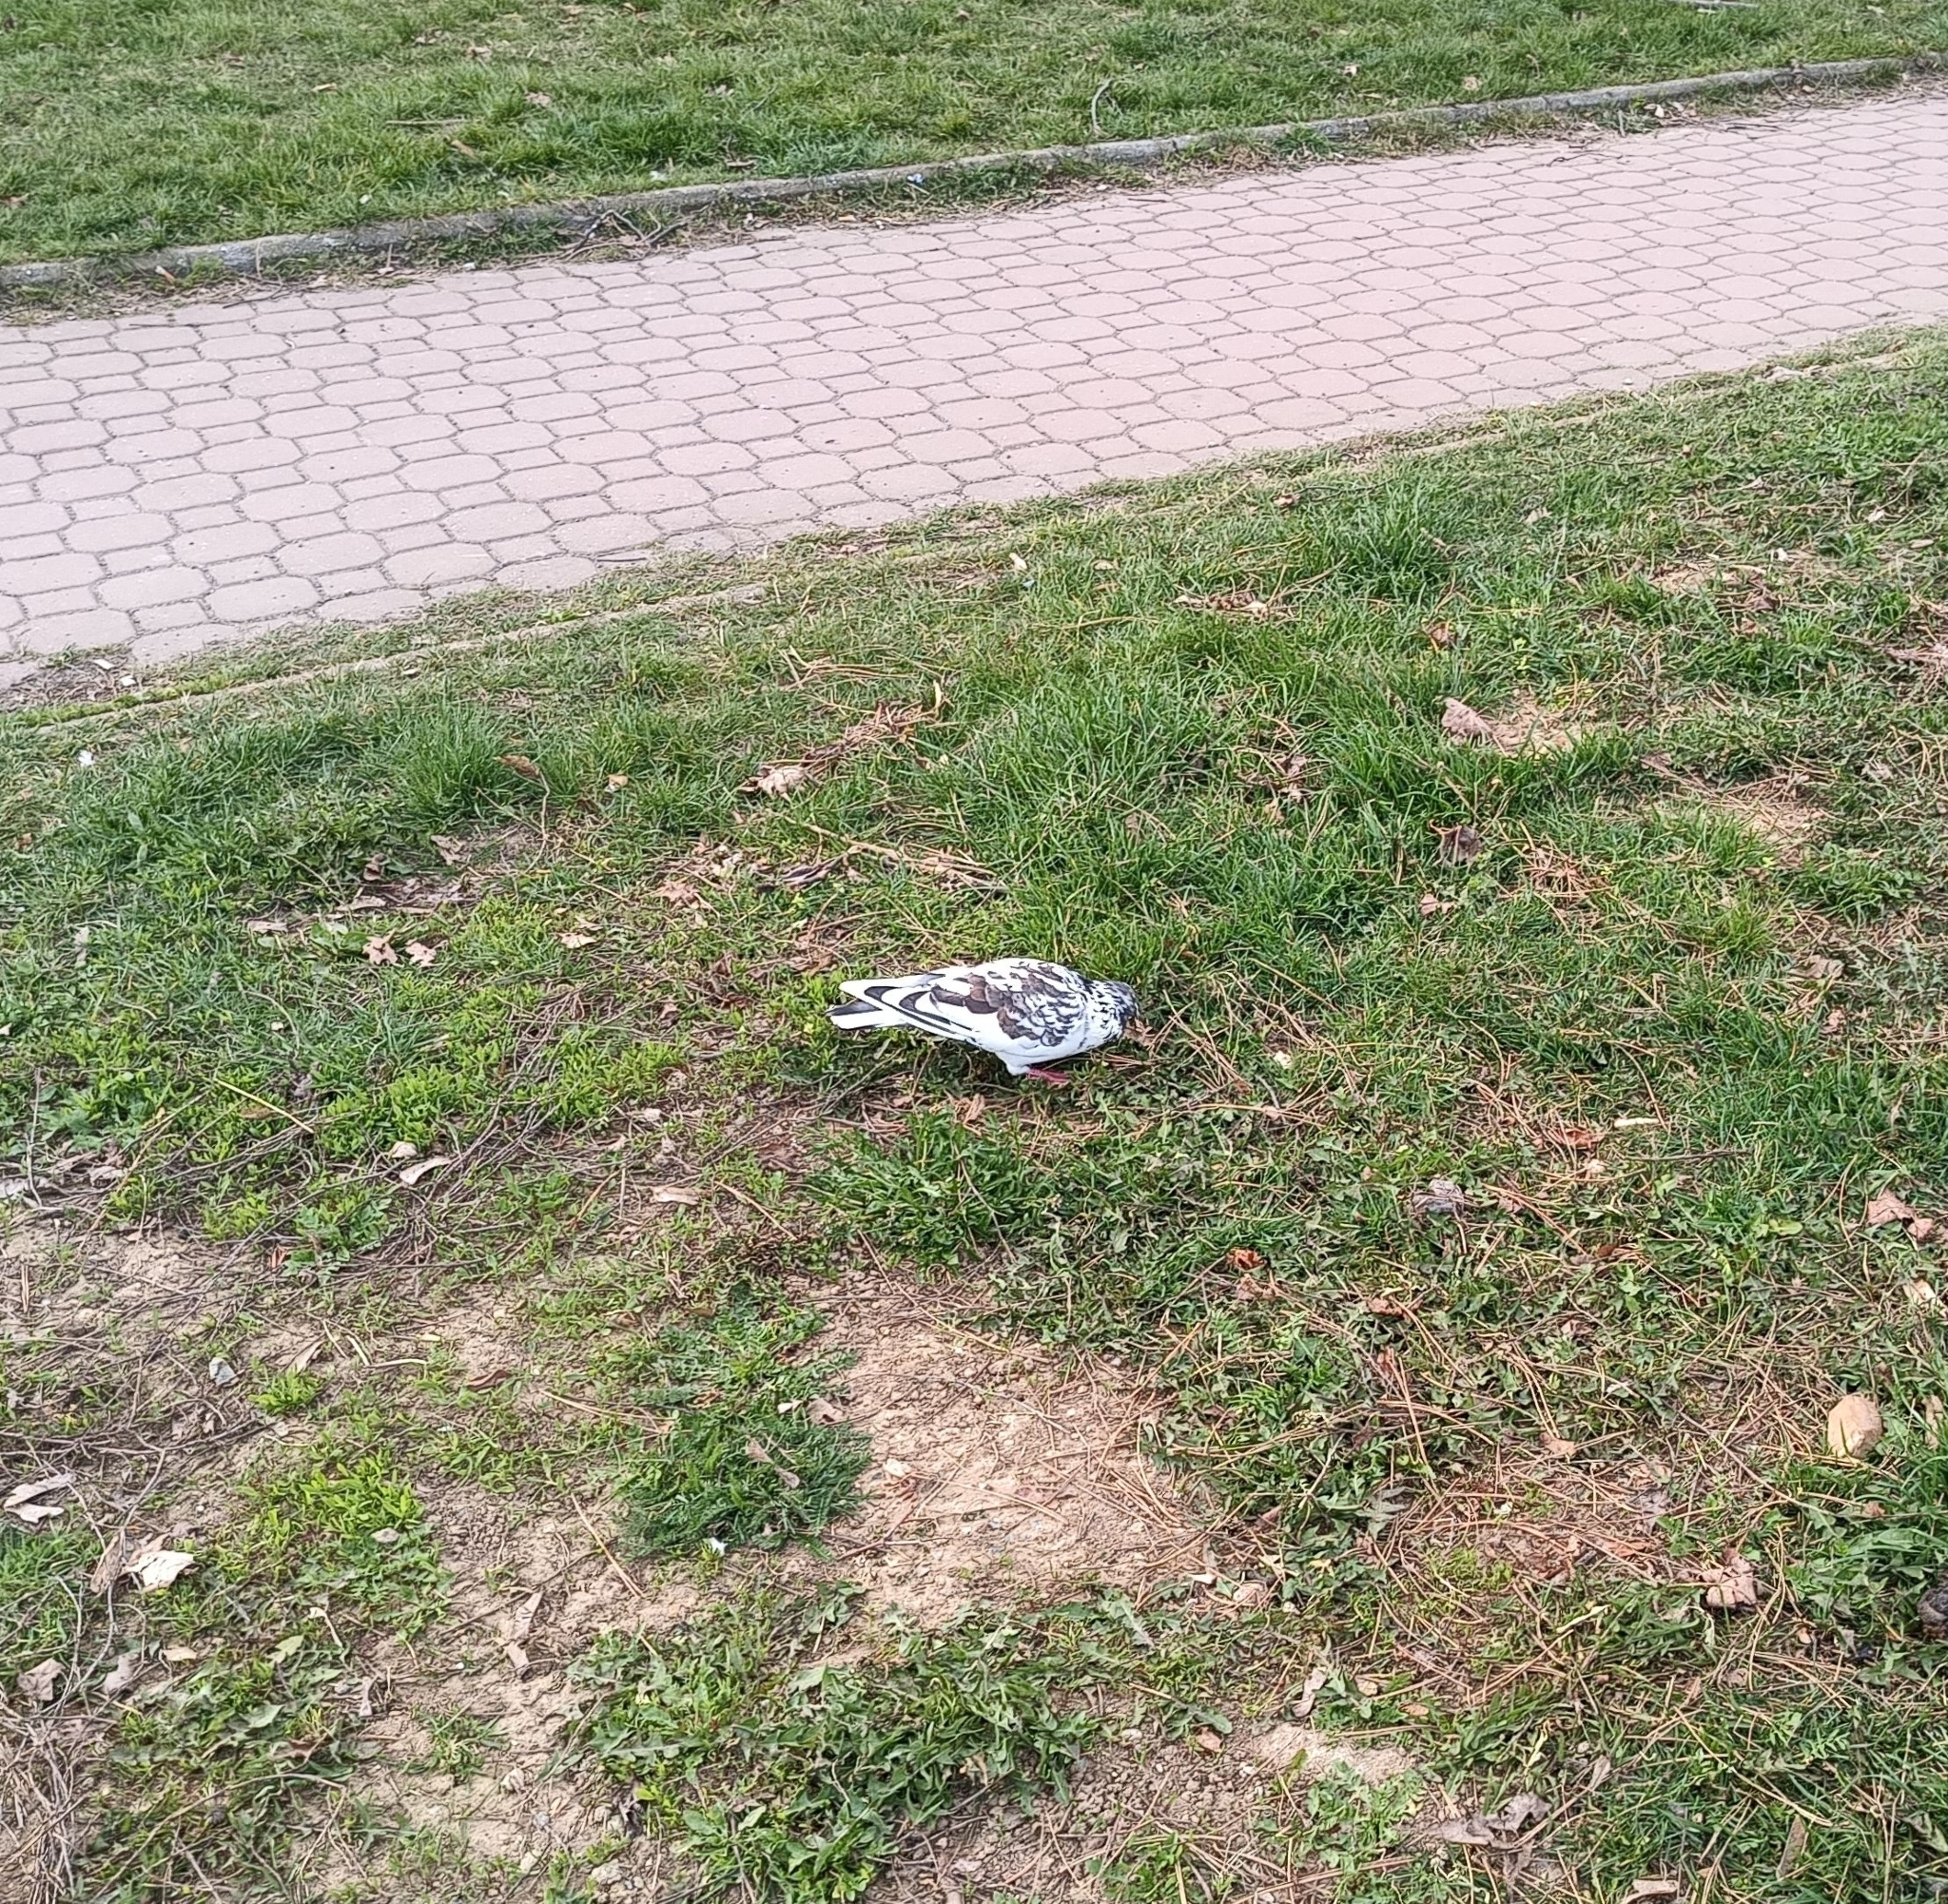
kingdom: Animalia
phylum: Chordata
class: Aves
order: Columbiformes
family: Columbidae
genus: Columba
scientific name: Columba livia
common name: Rock pigeon
